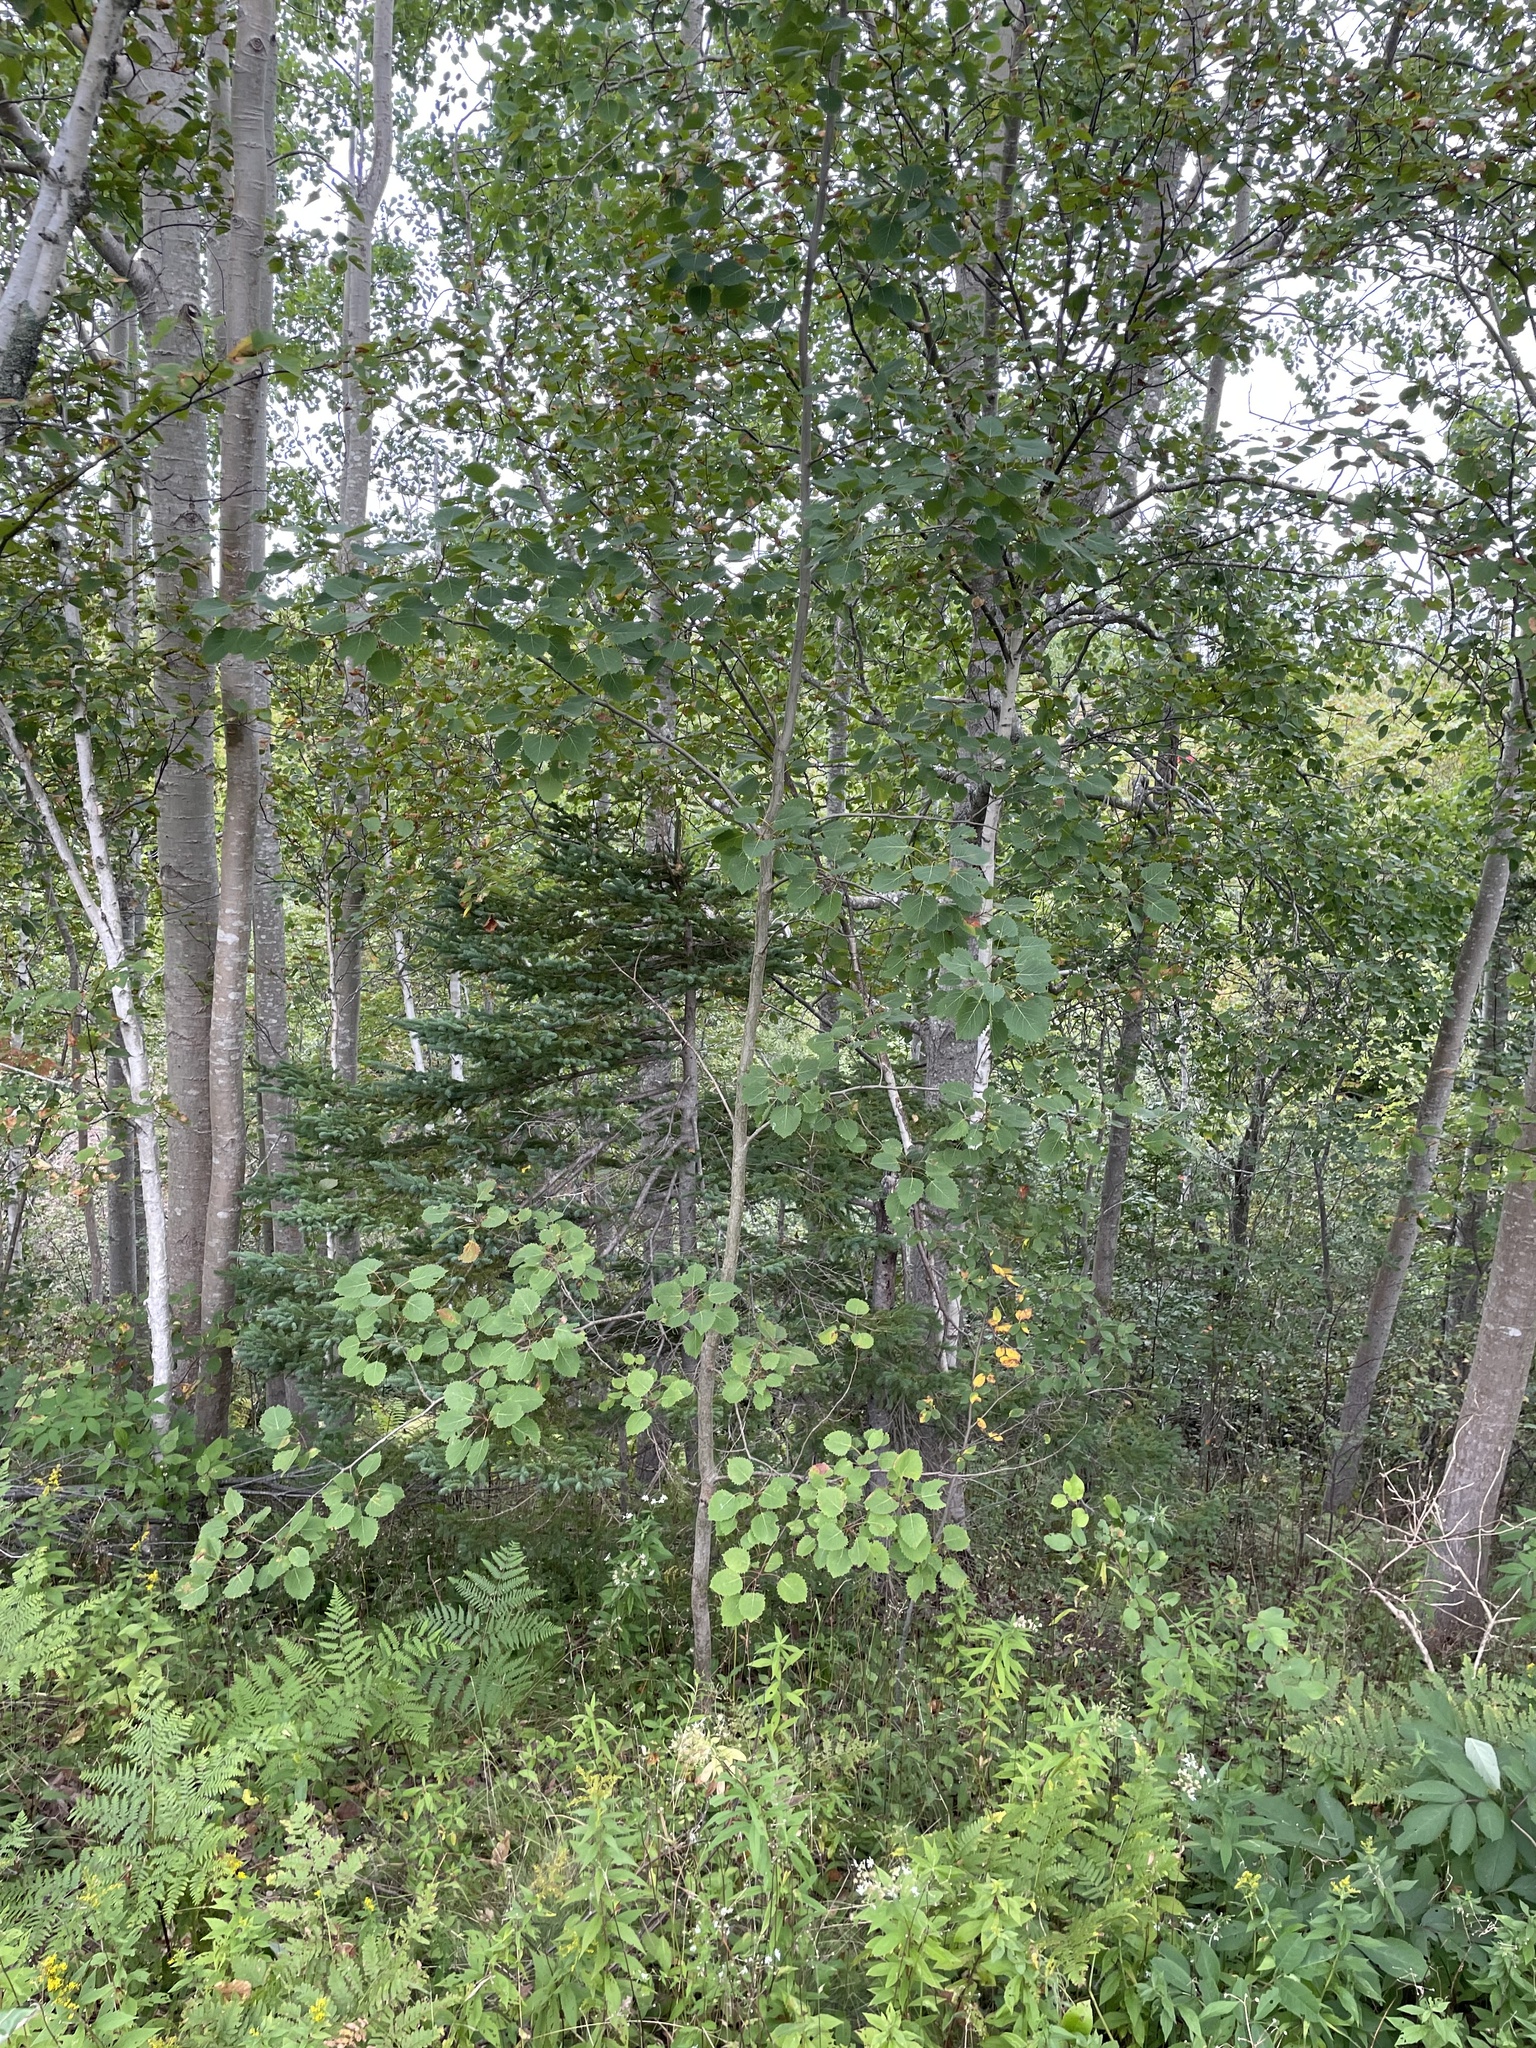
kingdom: Plantae
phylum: Tracheophyta
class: Magnoliopsida
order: Malpighiales
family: Salicaceae
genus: Populus
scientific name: Populus grandidentata
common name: Bigtooth aspen
